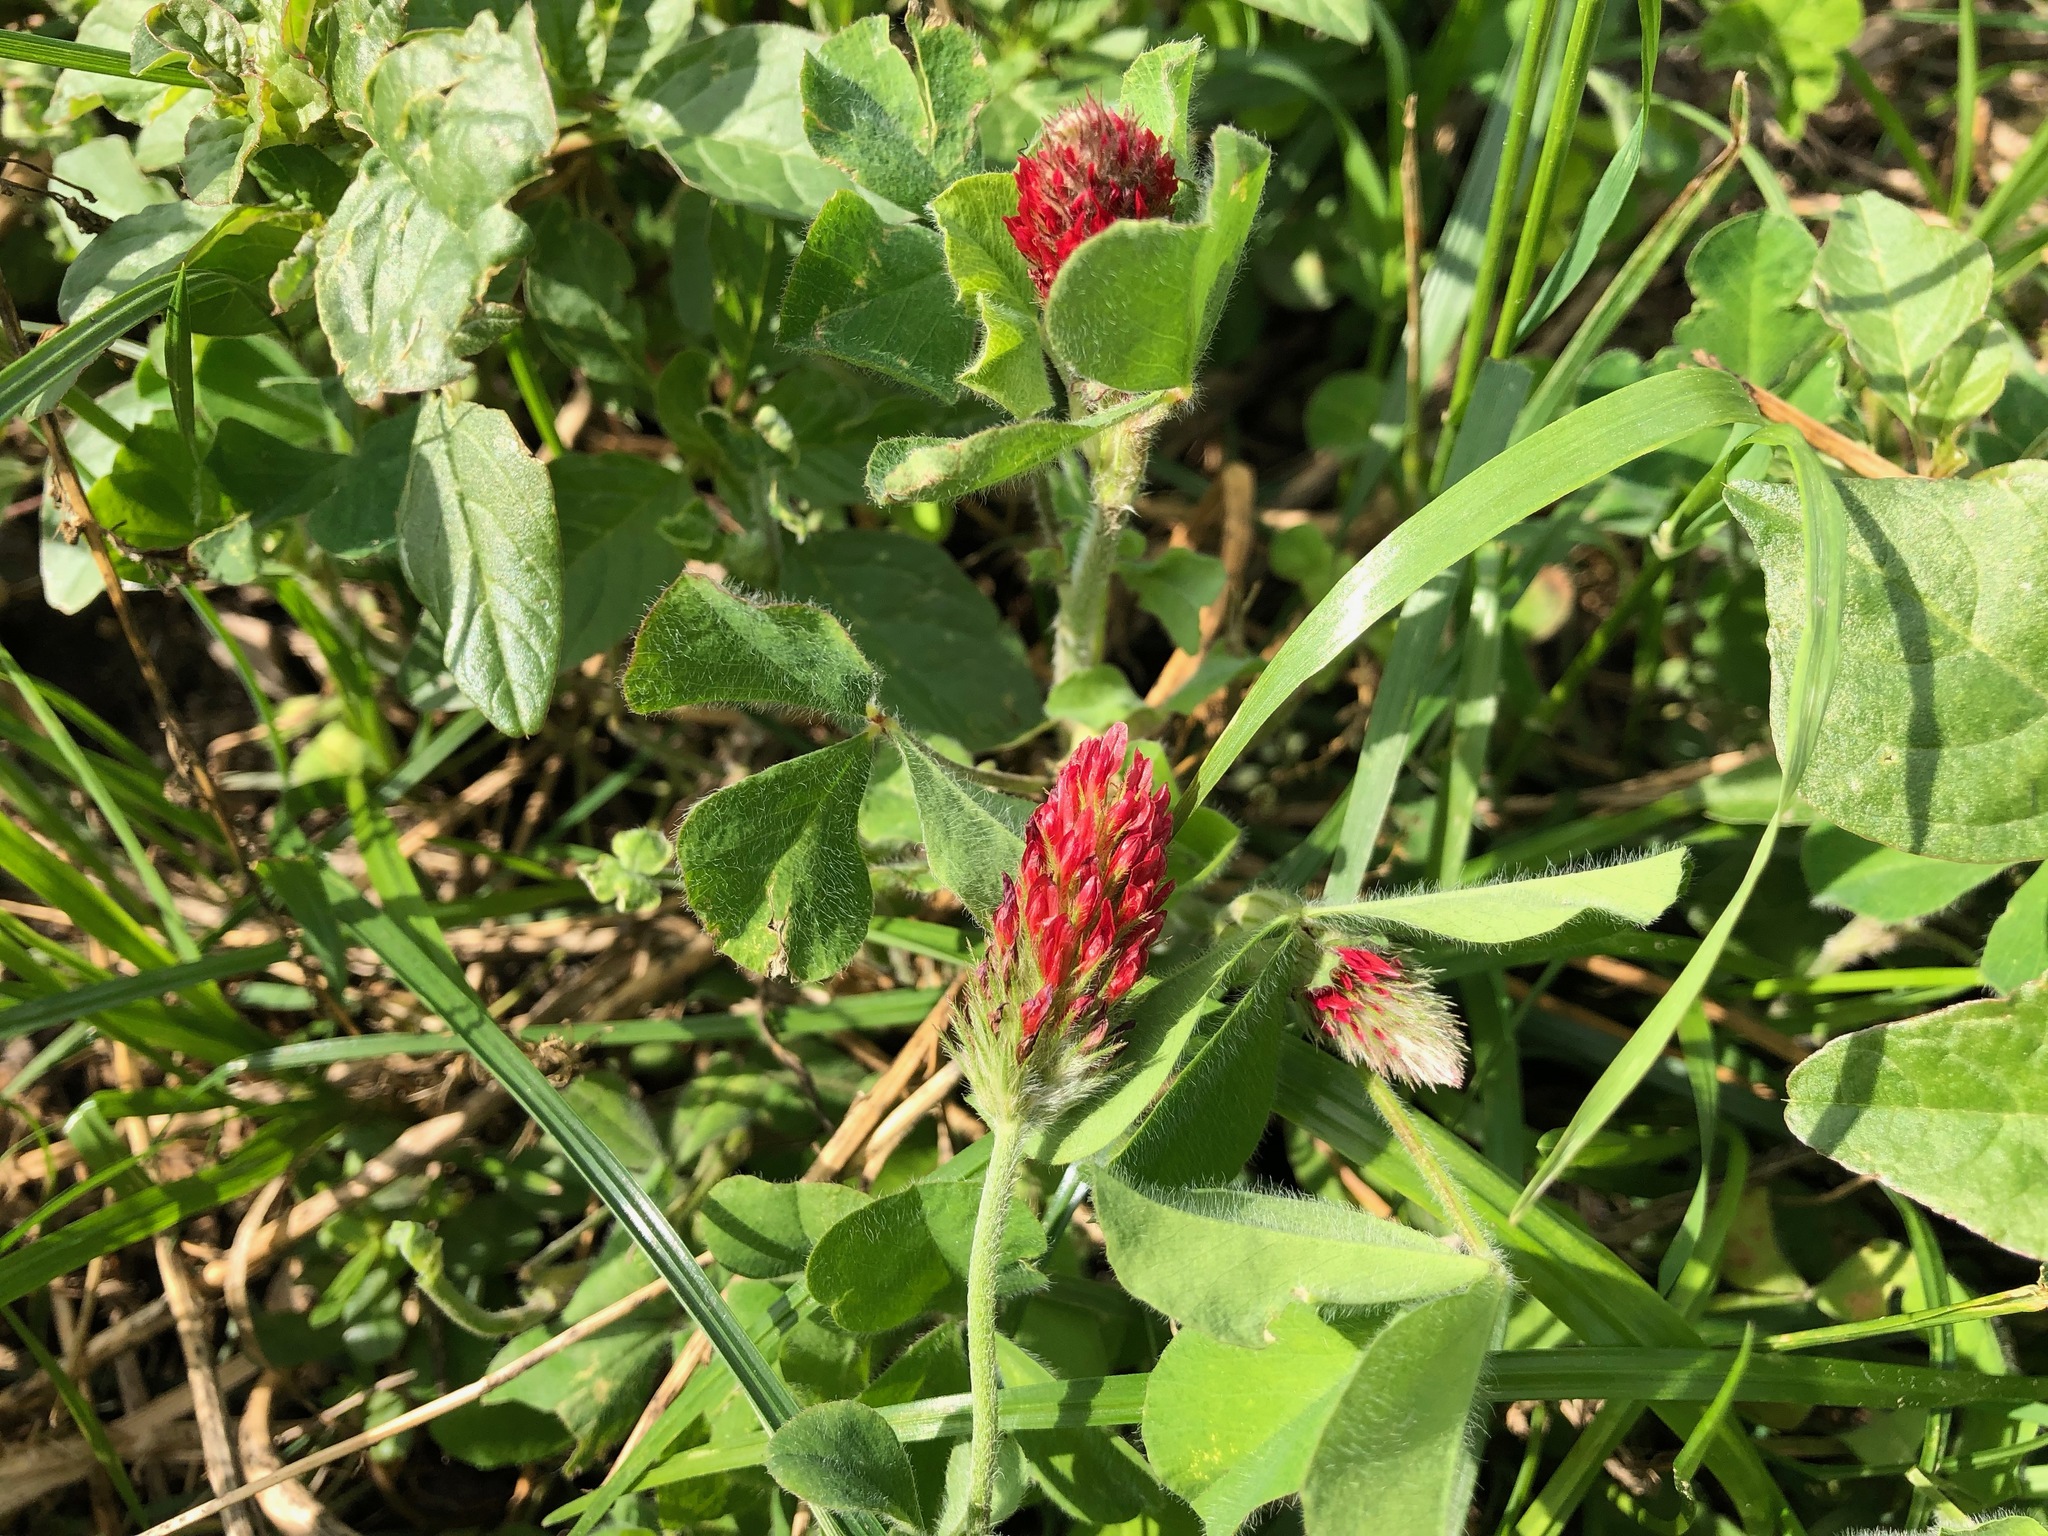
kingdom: Plantae
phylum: Tracheophyta
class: Magnoliopsida
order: Fabales
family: Fabaceae
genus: Trifolium
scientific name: Trifolium incarnatum
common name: Crimson clover
